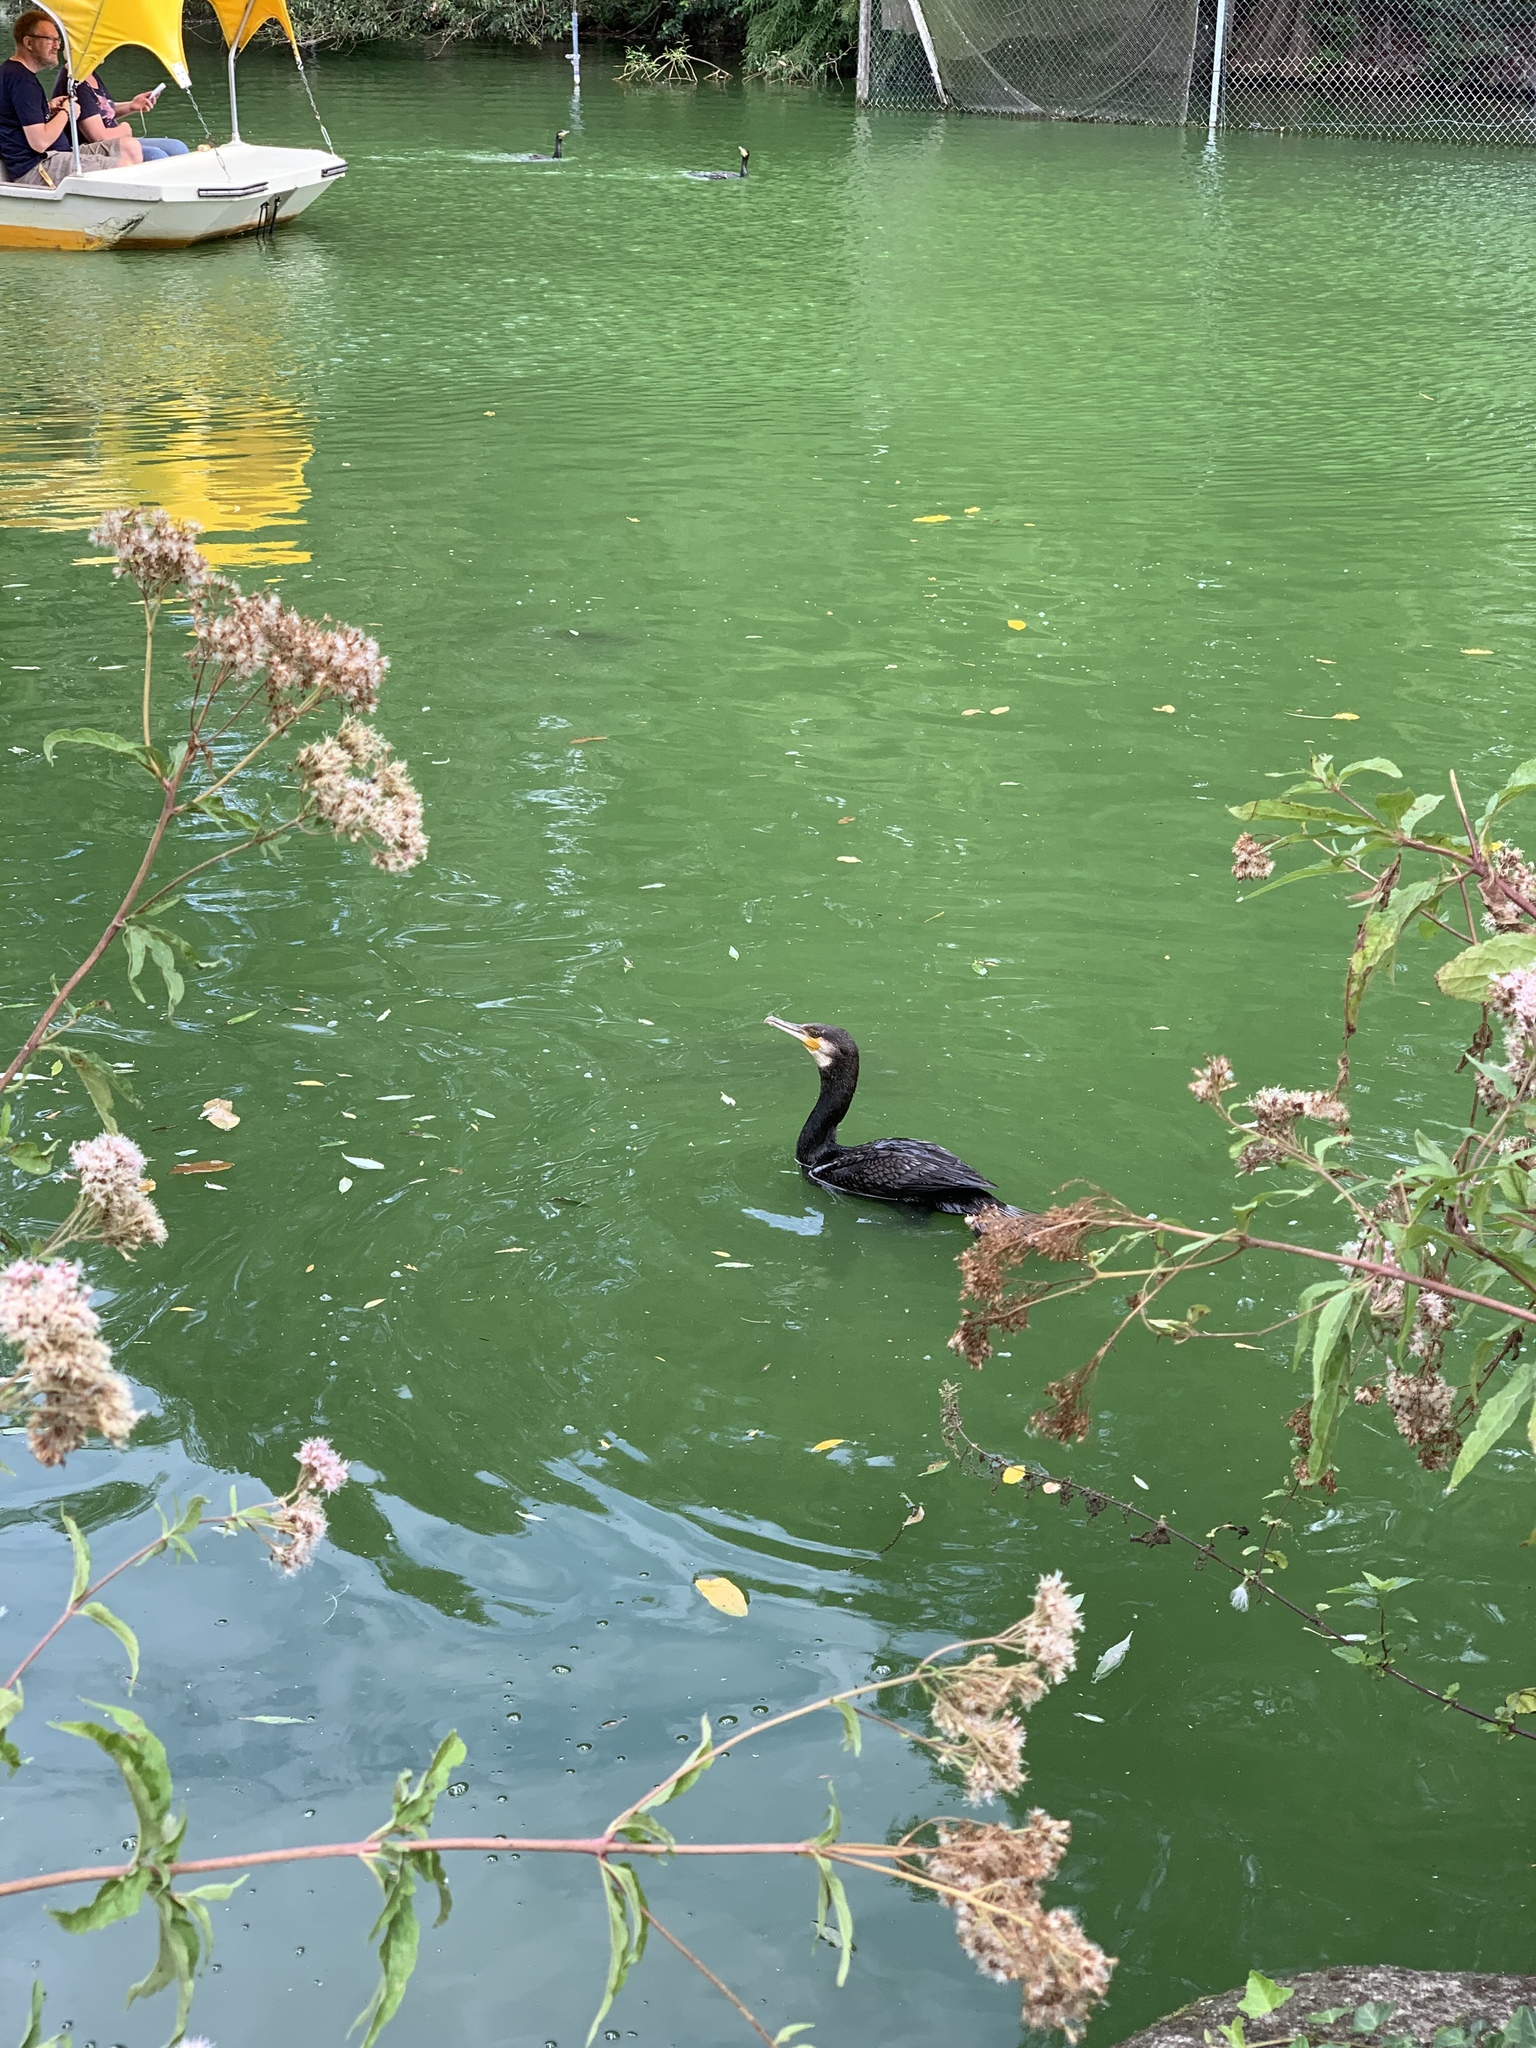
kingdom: Animalia
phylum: Chordata
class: Aves
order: Suliformes
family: Phalacrocoracidae
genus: Phalacrocorax
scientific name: Phalacrocorax carbo
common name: Great cormorant
